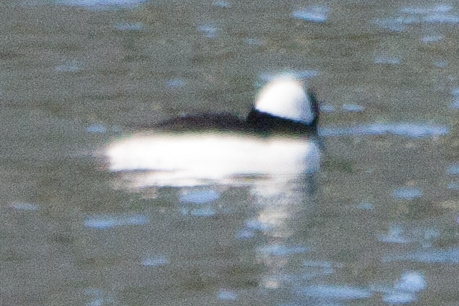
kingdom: Animalia
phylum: Chordata
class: Aves
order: Anseriformes
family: Anatidae
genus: Bucephala
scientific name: Bucephala albeola
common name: Bufflehead
